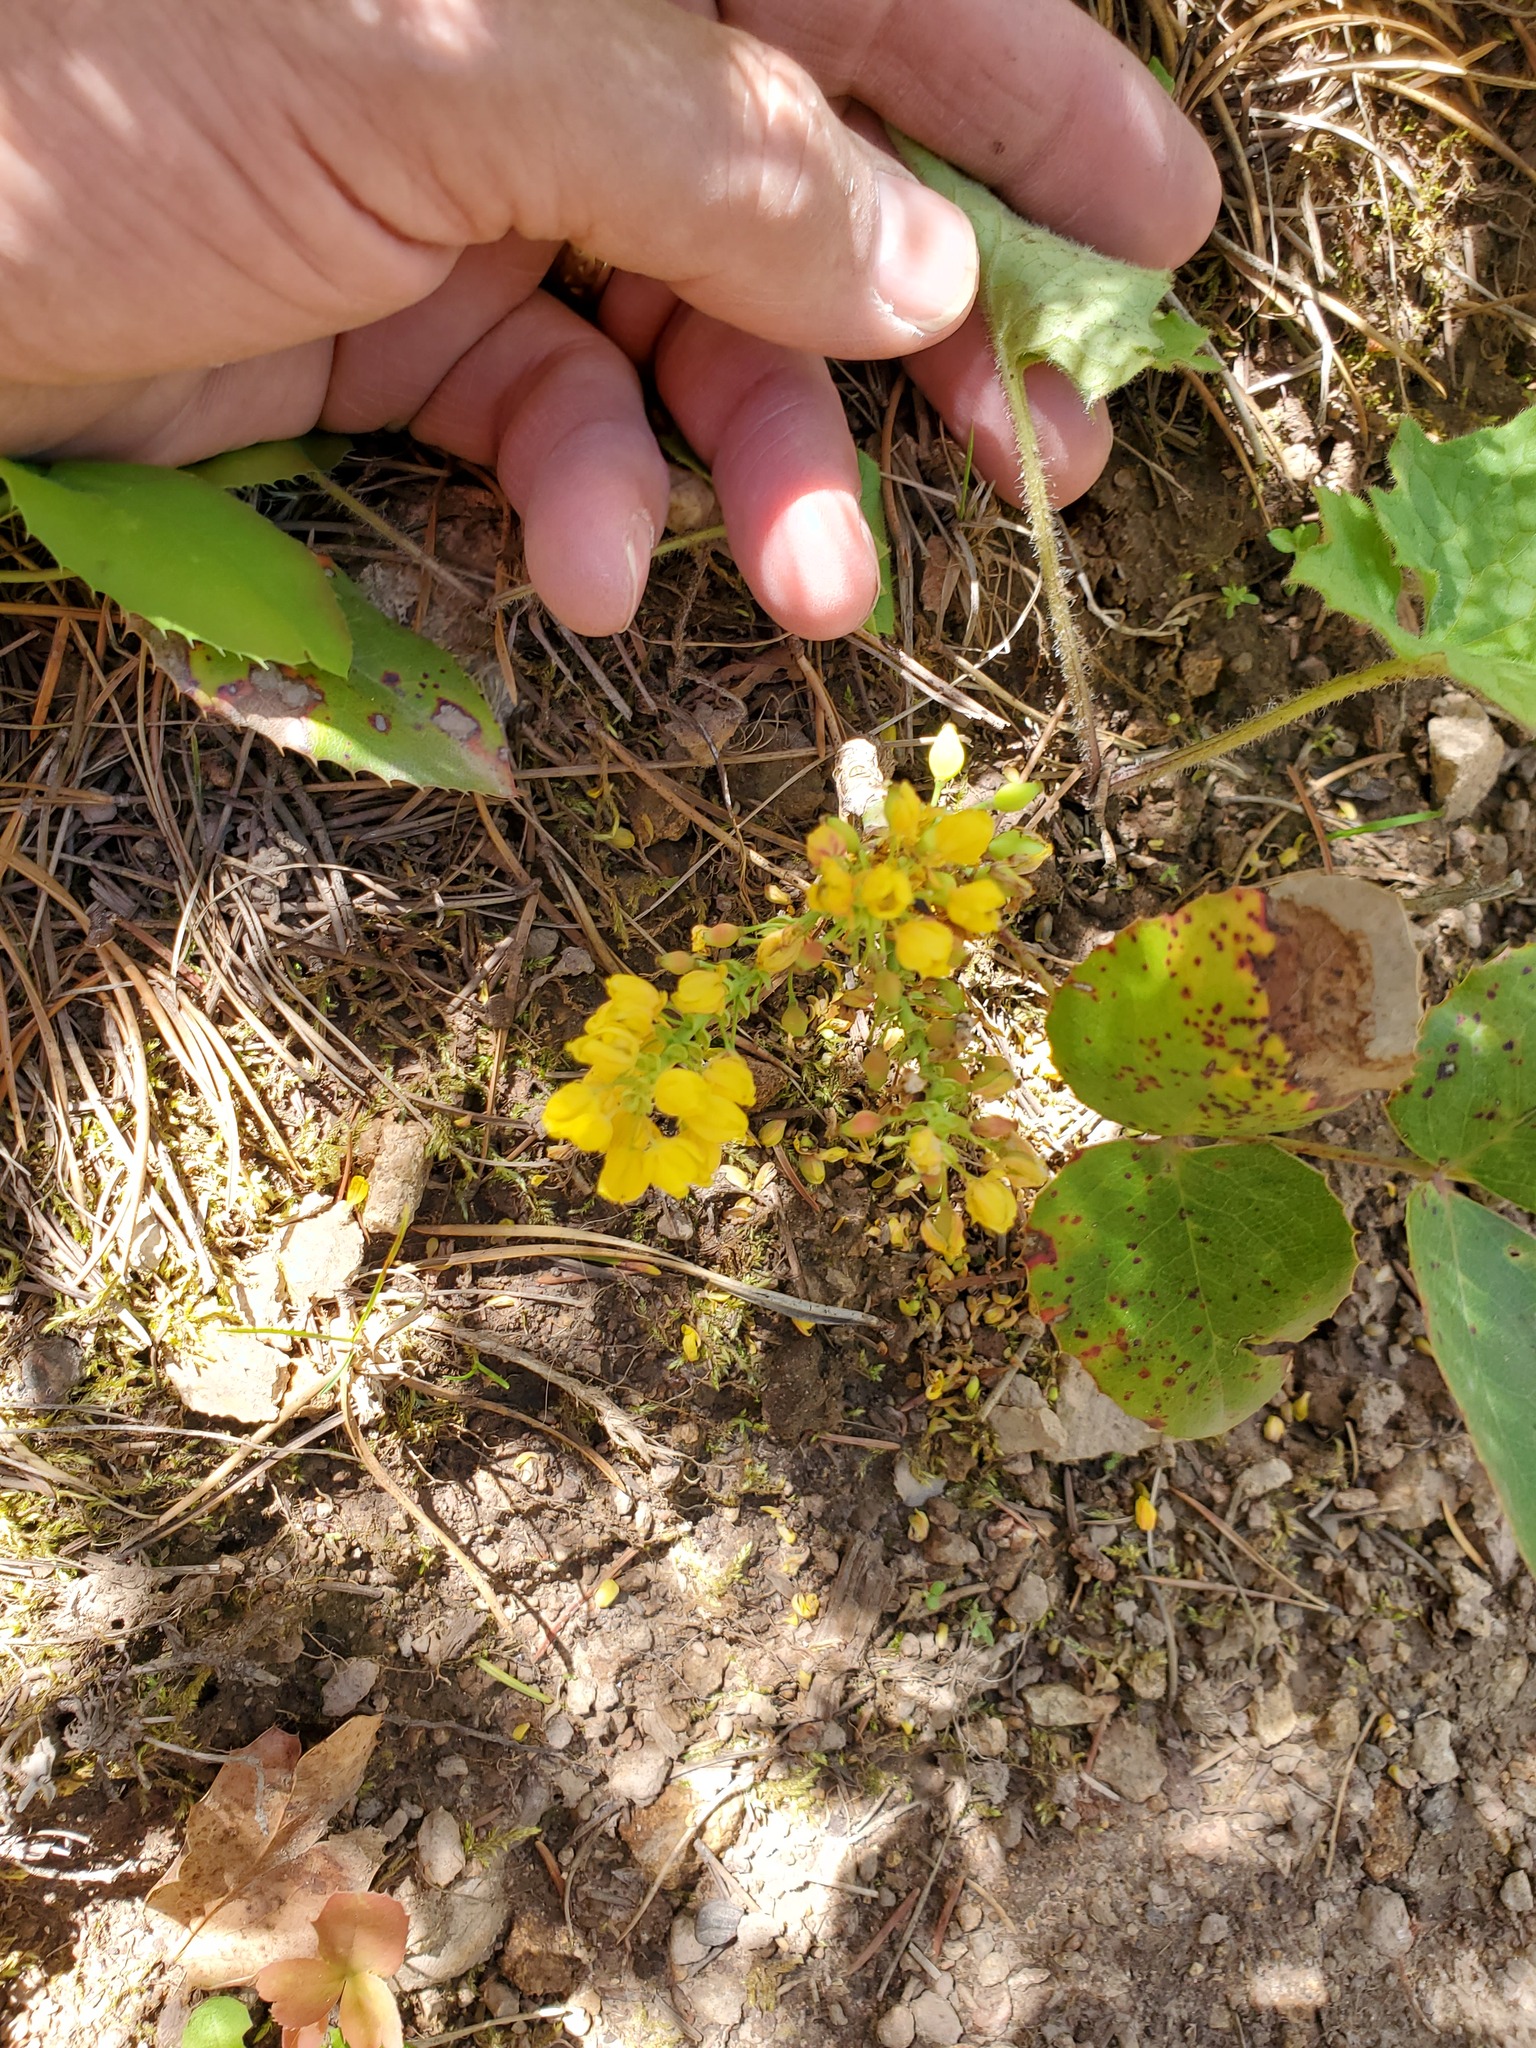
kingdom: Plantae
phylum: Tracheophyta
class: Magnoliopsida
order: Ranunculales
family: Berberidaceae
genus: Mahonia
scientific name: Mahonia repens
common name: Creeping oregon-grape
